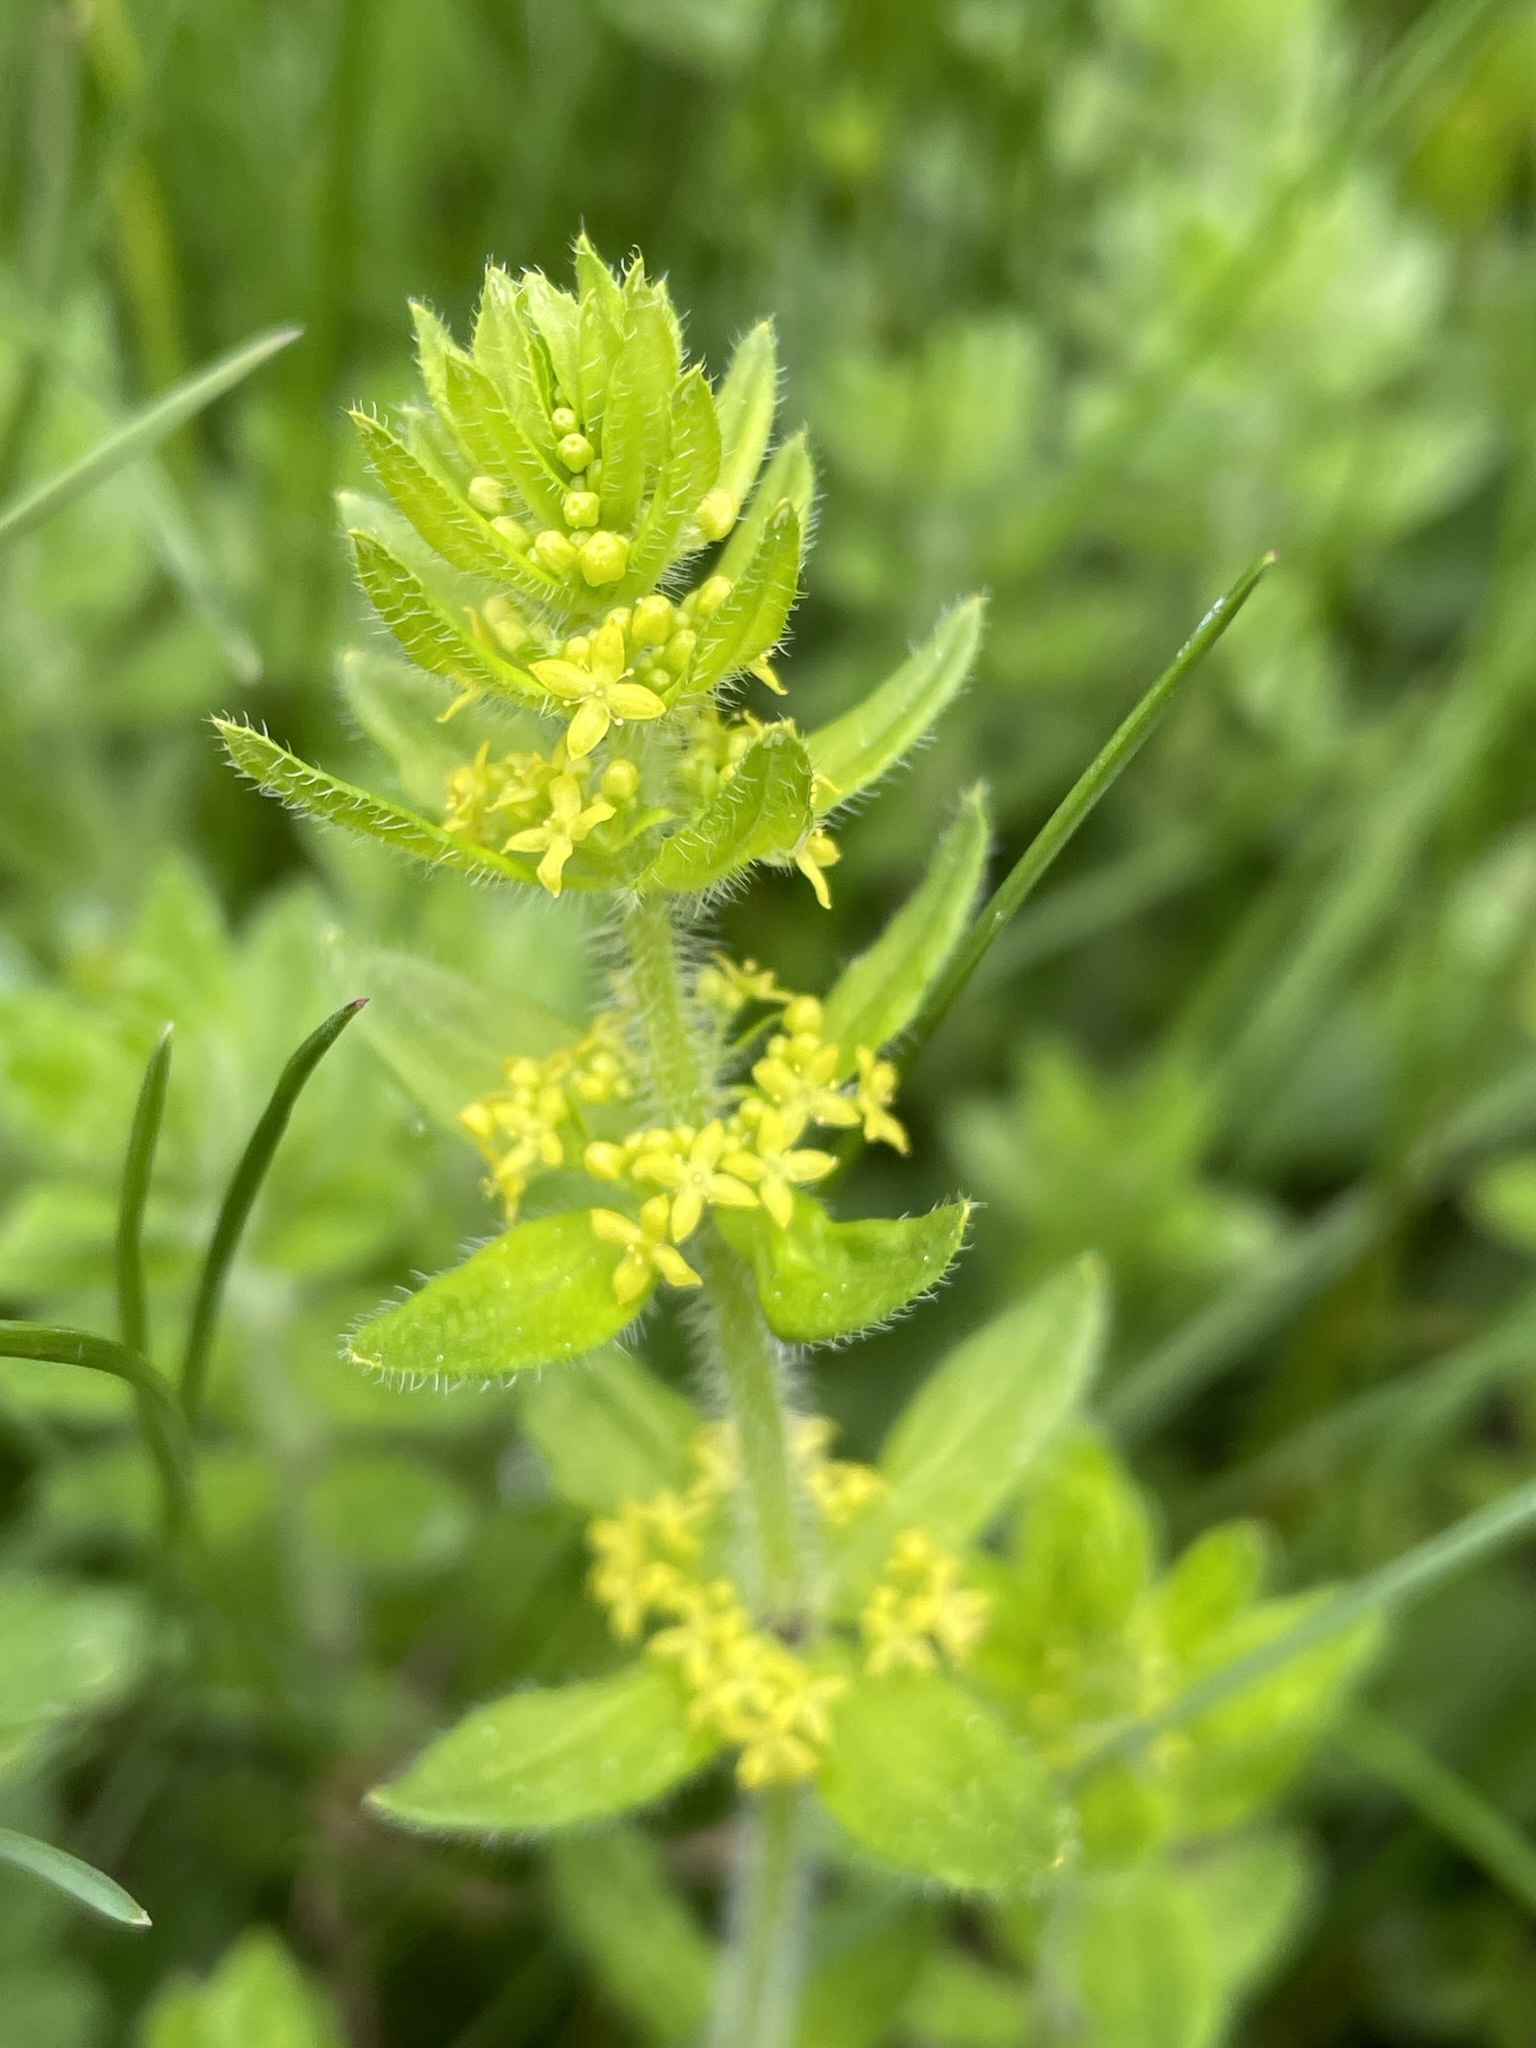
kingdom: Plantae
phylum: Tracheophyta
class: Magnoliopsida
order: Gentianales
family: Rubiaceae
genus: Cruciata
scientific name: Cruciata laevipes
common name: Crosswort
